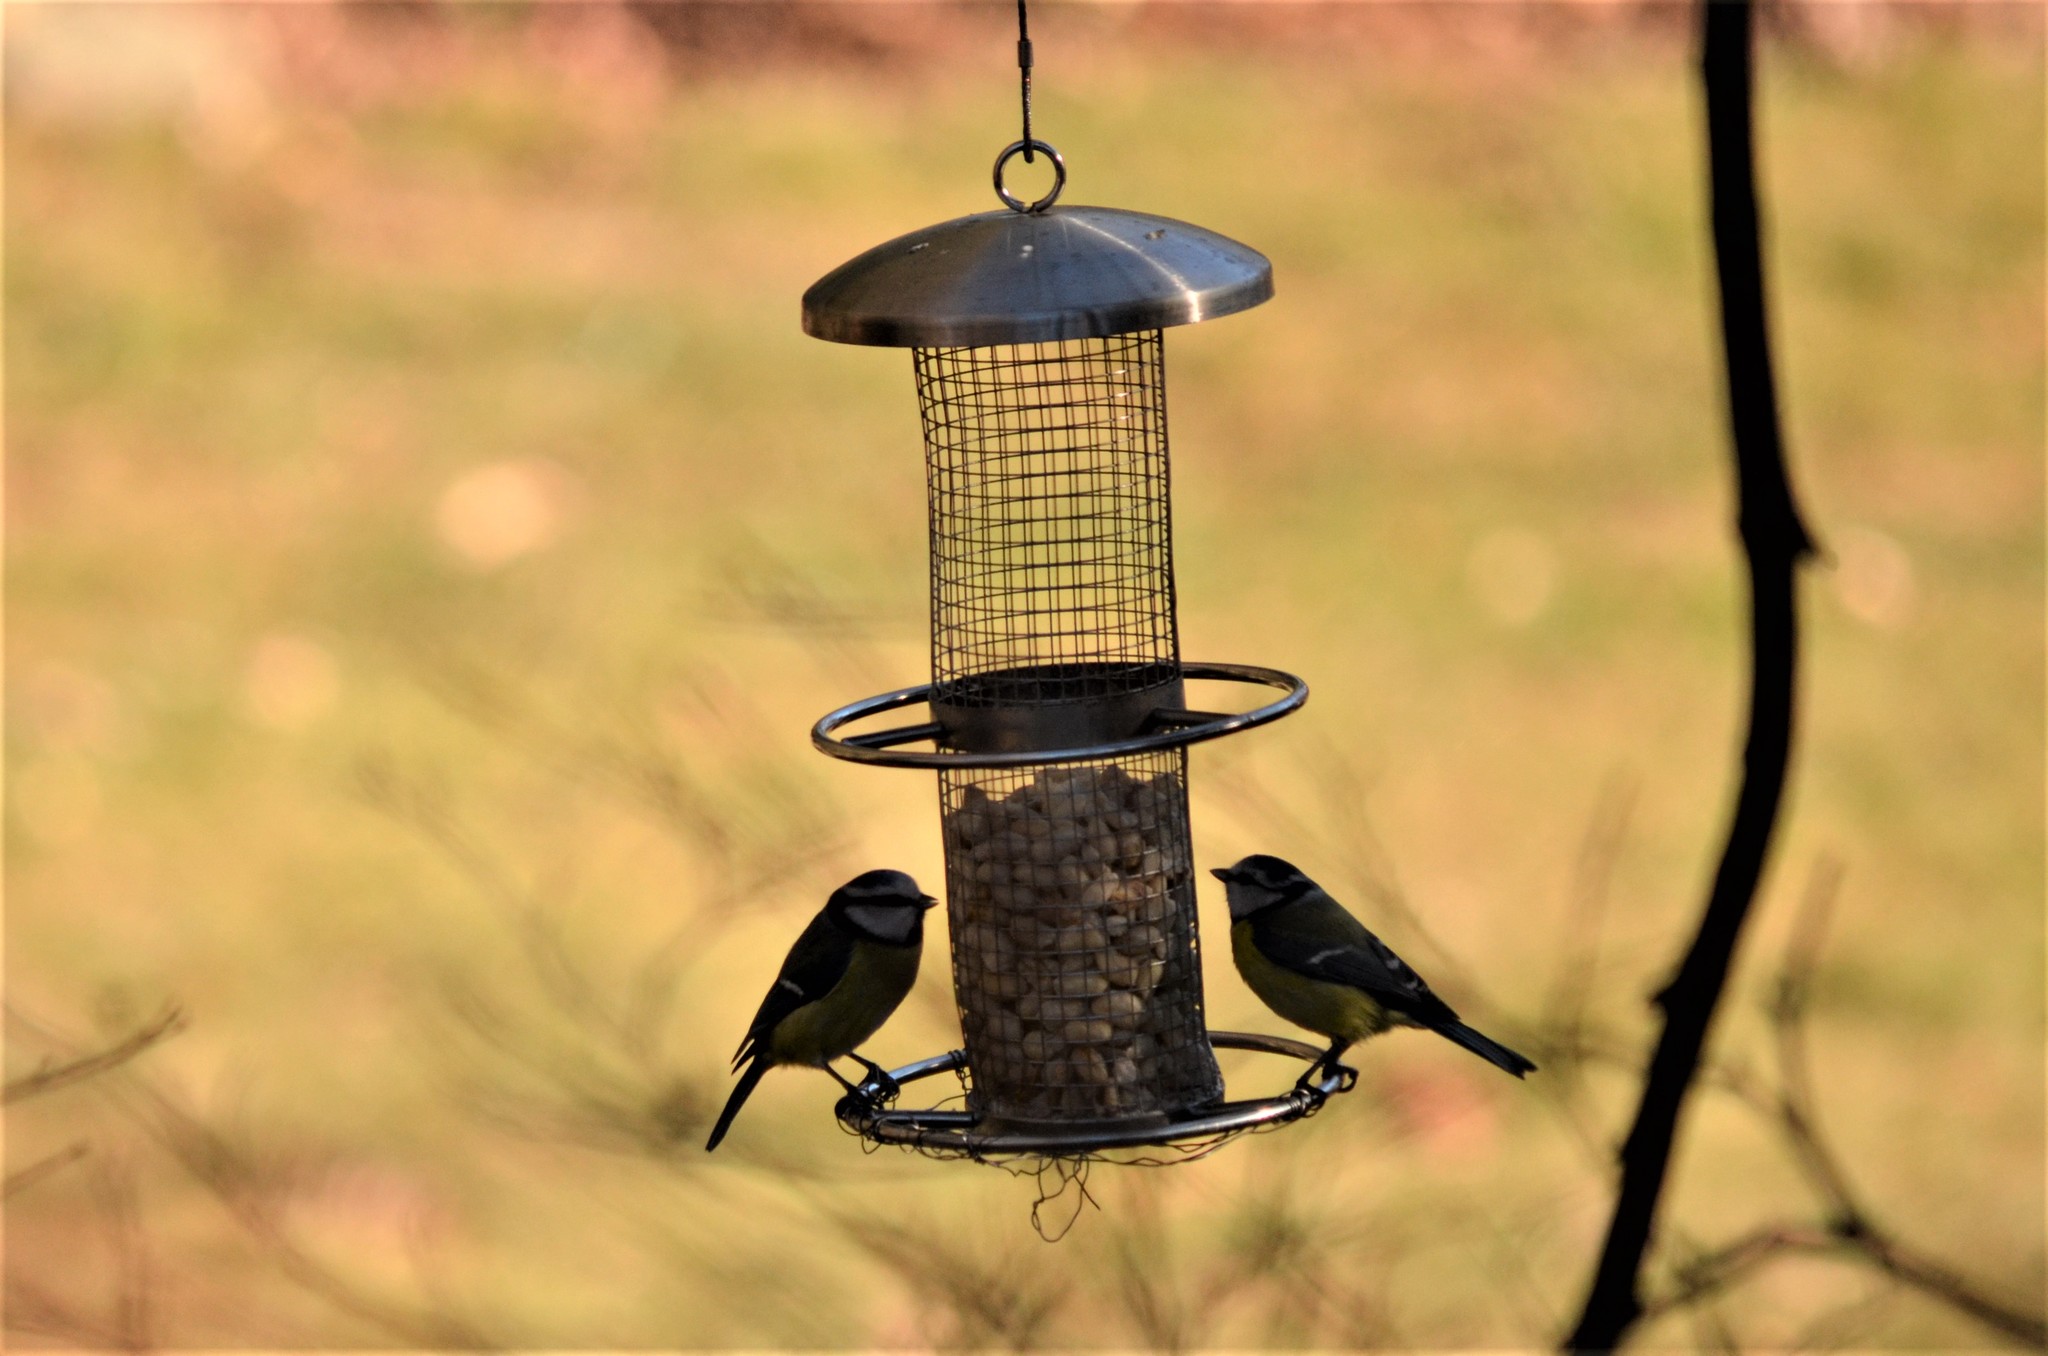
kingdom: Animalia
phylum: Chordata
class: Aves
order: Passeriformes
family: Paridae
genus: Cyanistes
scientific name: Cyanistes caeruleus
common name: Eurasian blue tit
